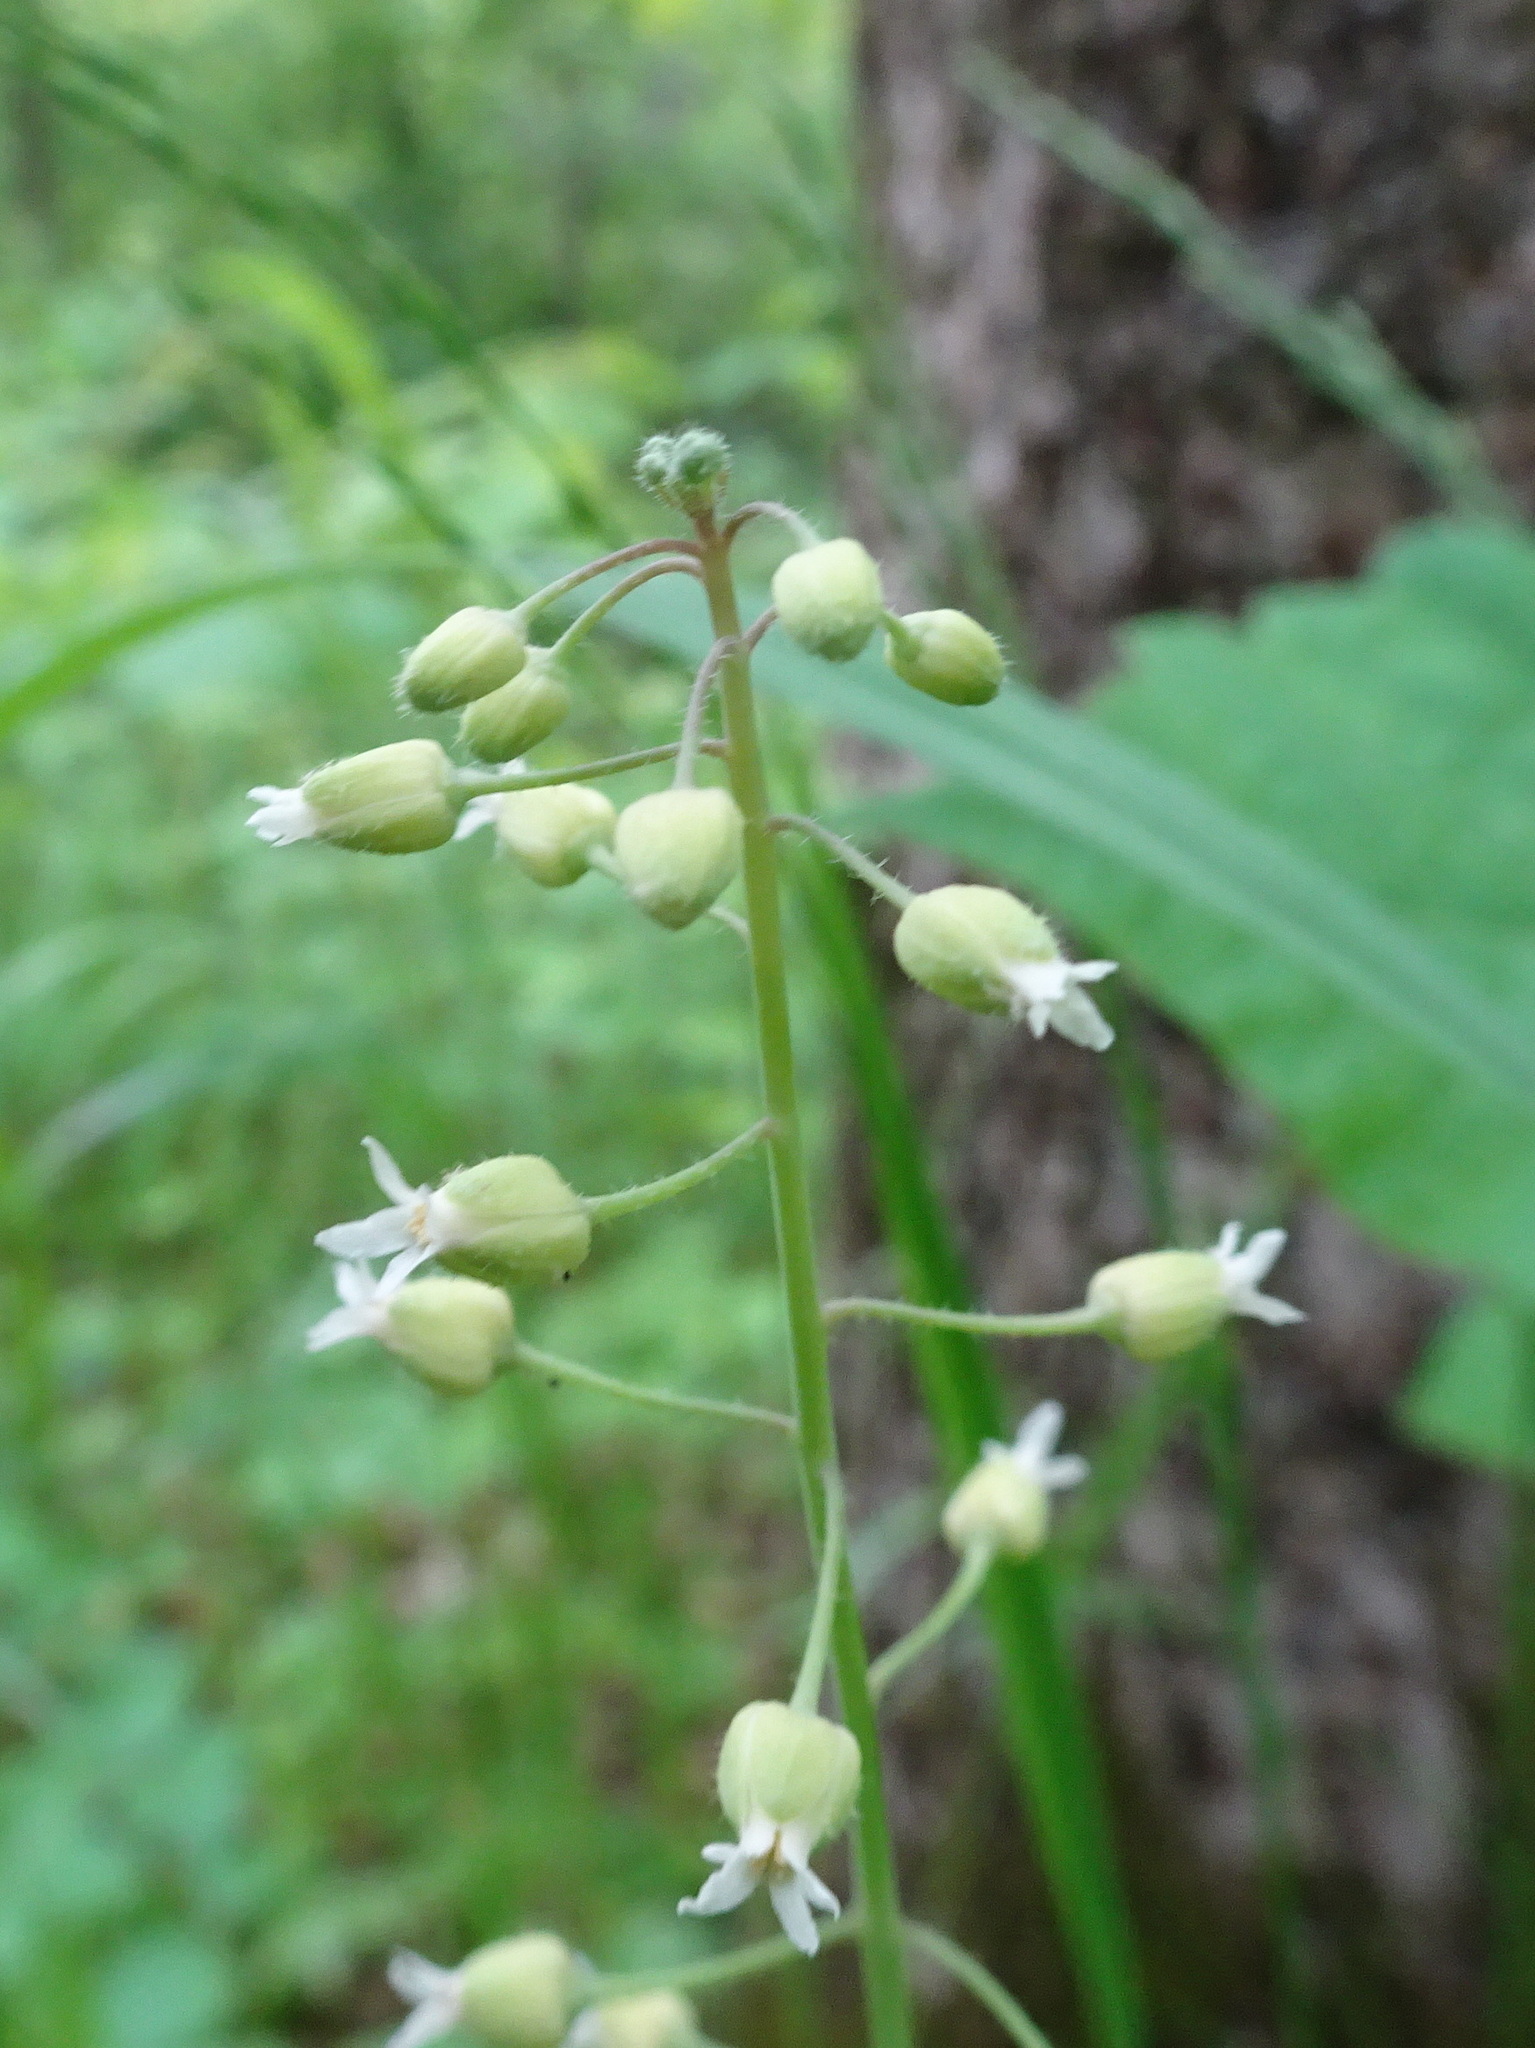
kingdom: Plantae
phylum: Tracheophyta
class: Magnoliopsida
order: Brassicales
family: Brassicaceae
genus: Borodinia
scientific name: Borodinia canadensis
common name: Sicklepod
